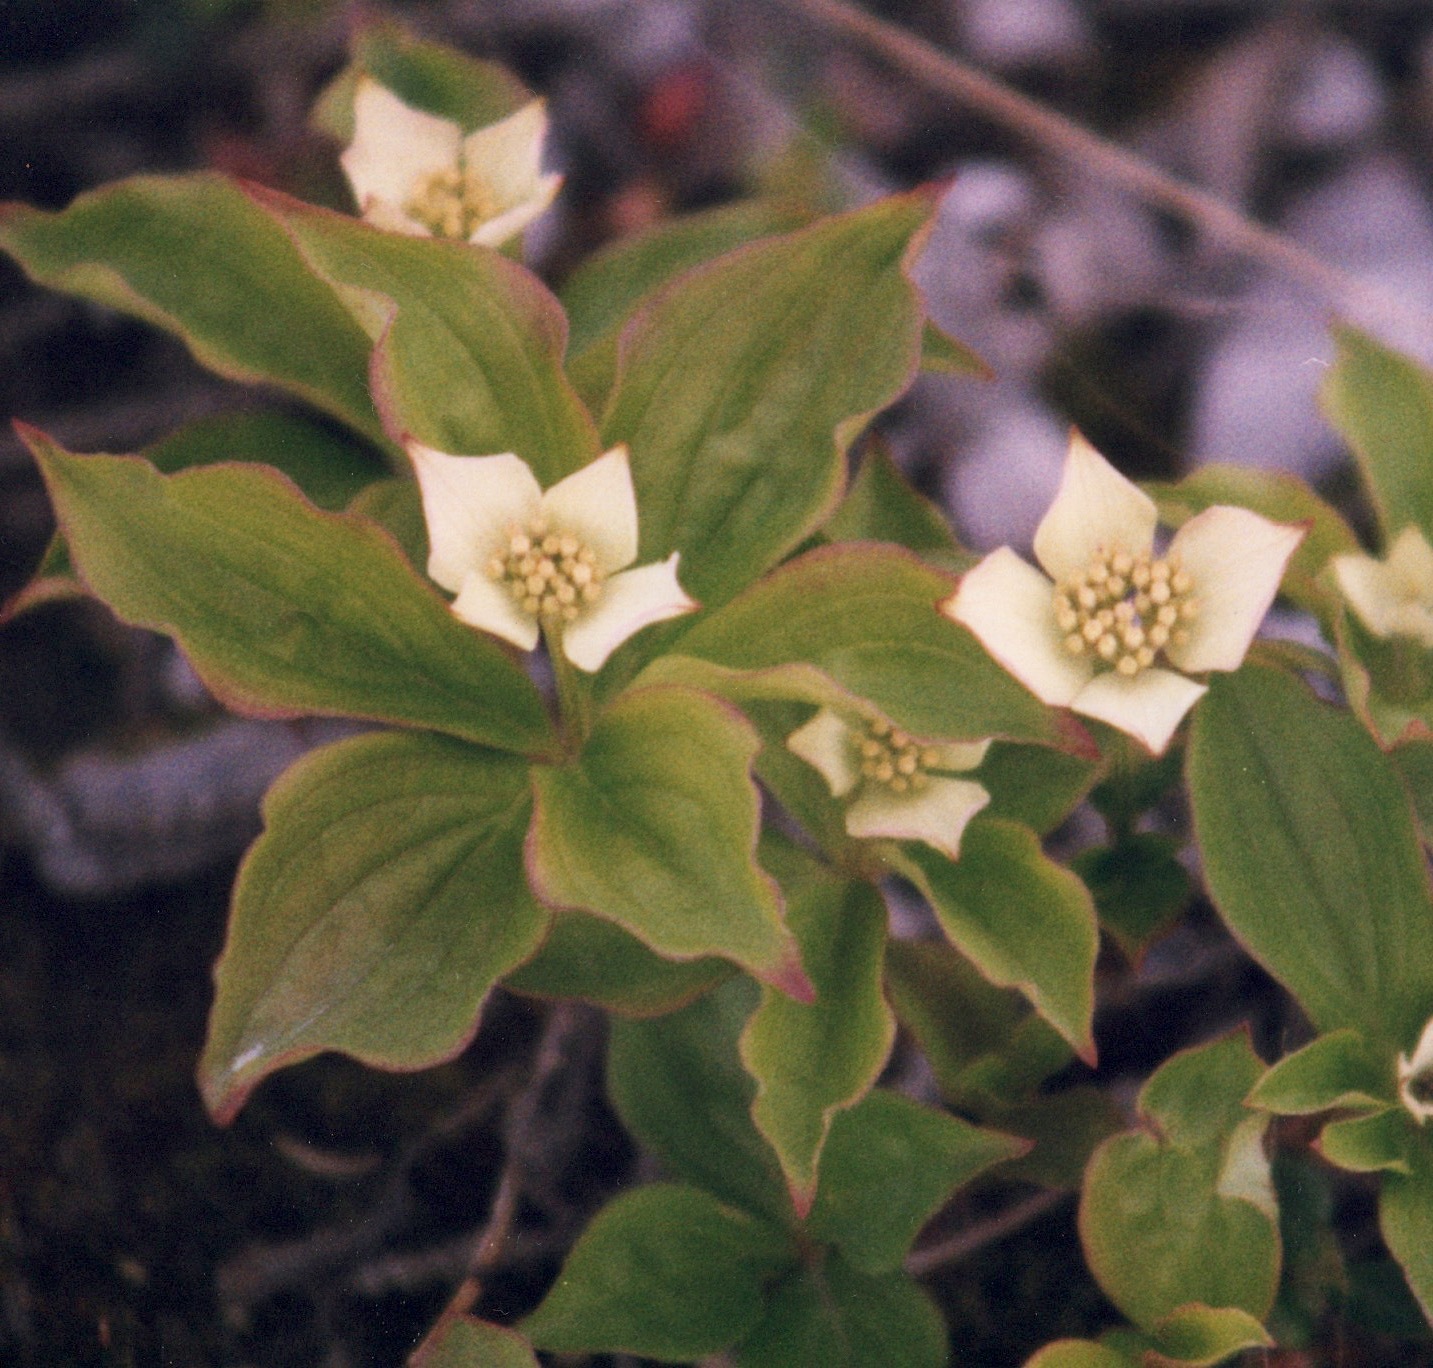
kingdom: Plantae
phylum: Tracheophyta
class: Magnoliopsida
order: Cornales
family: Cornaceae
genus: Cornus
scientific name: Cornus canadensis
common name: Creeping dogwood
